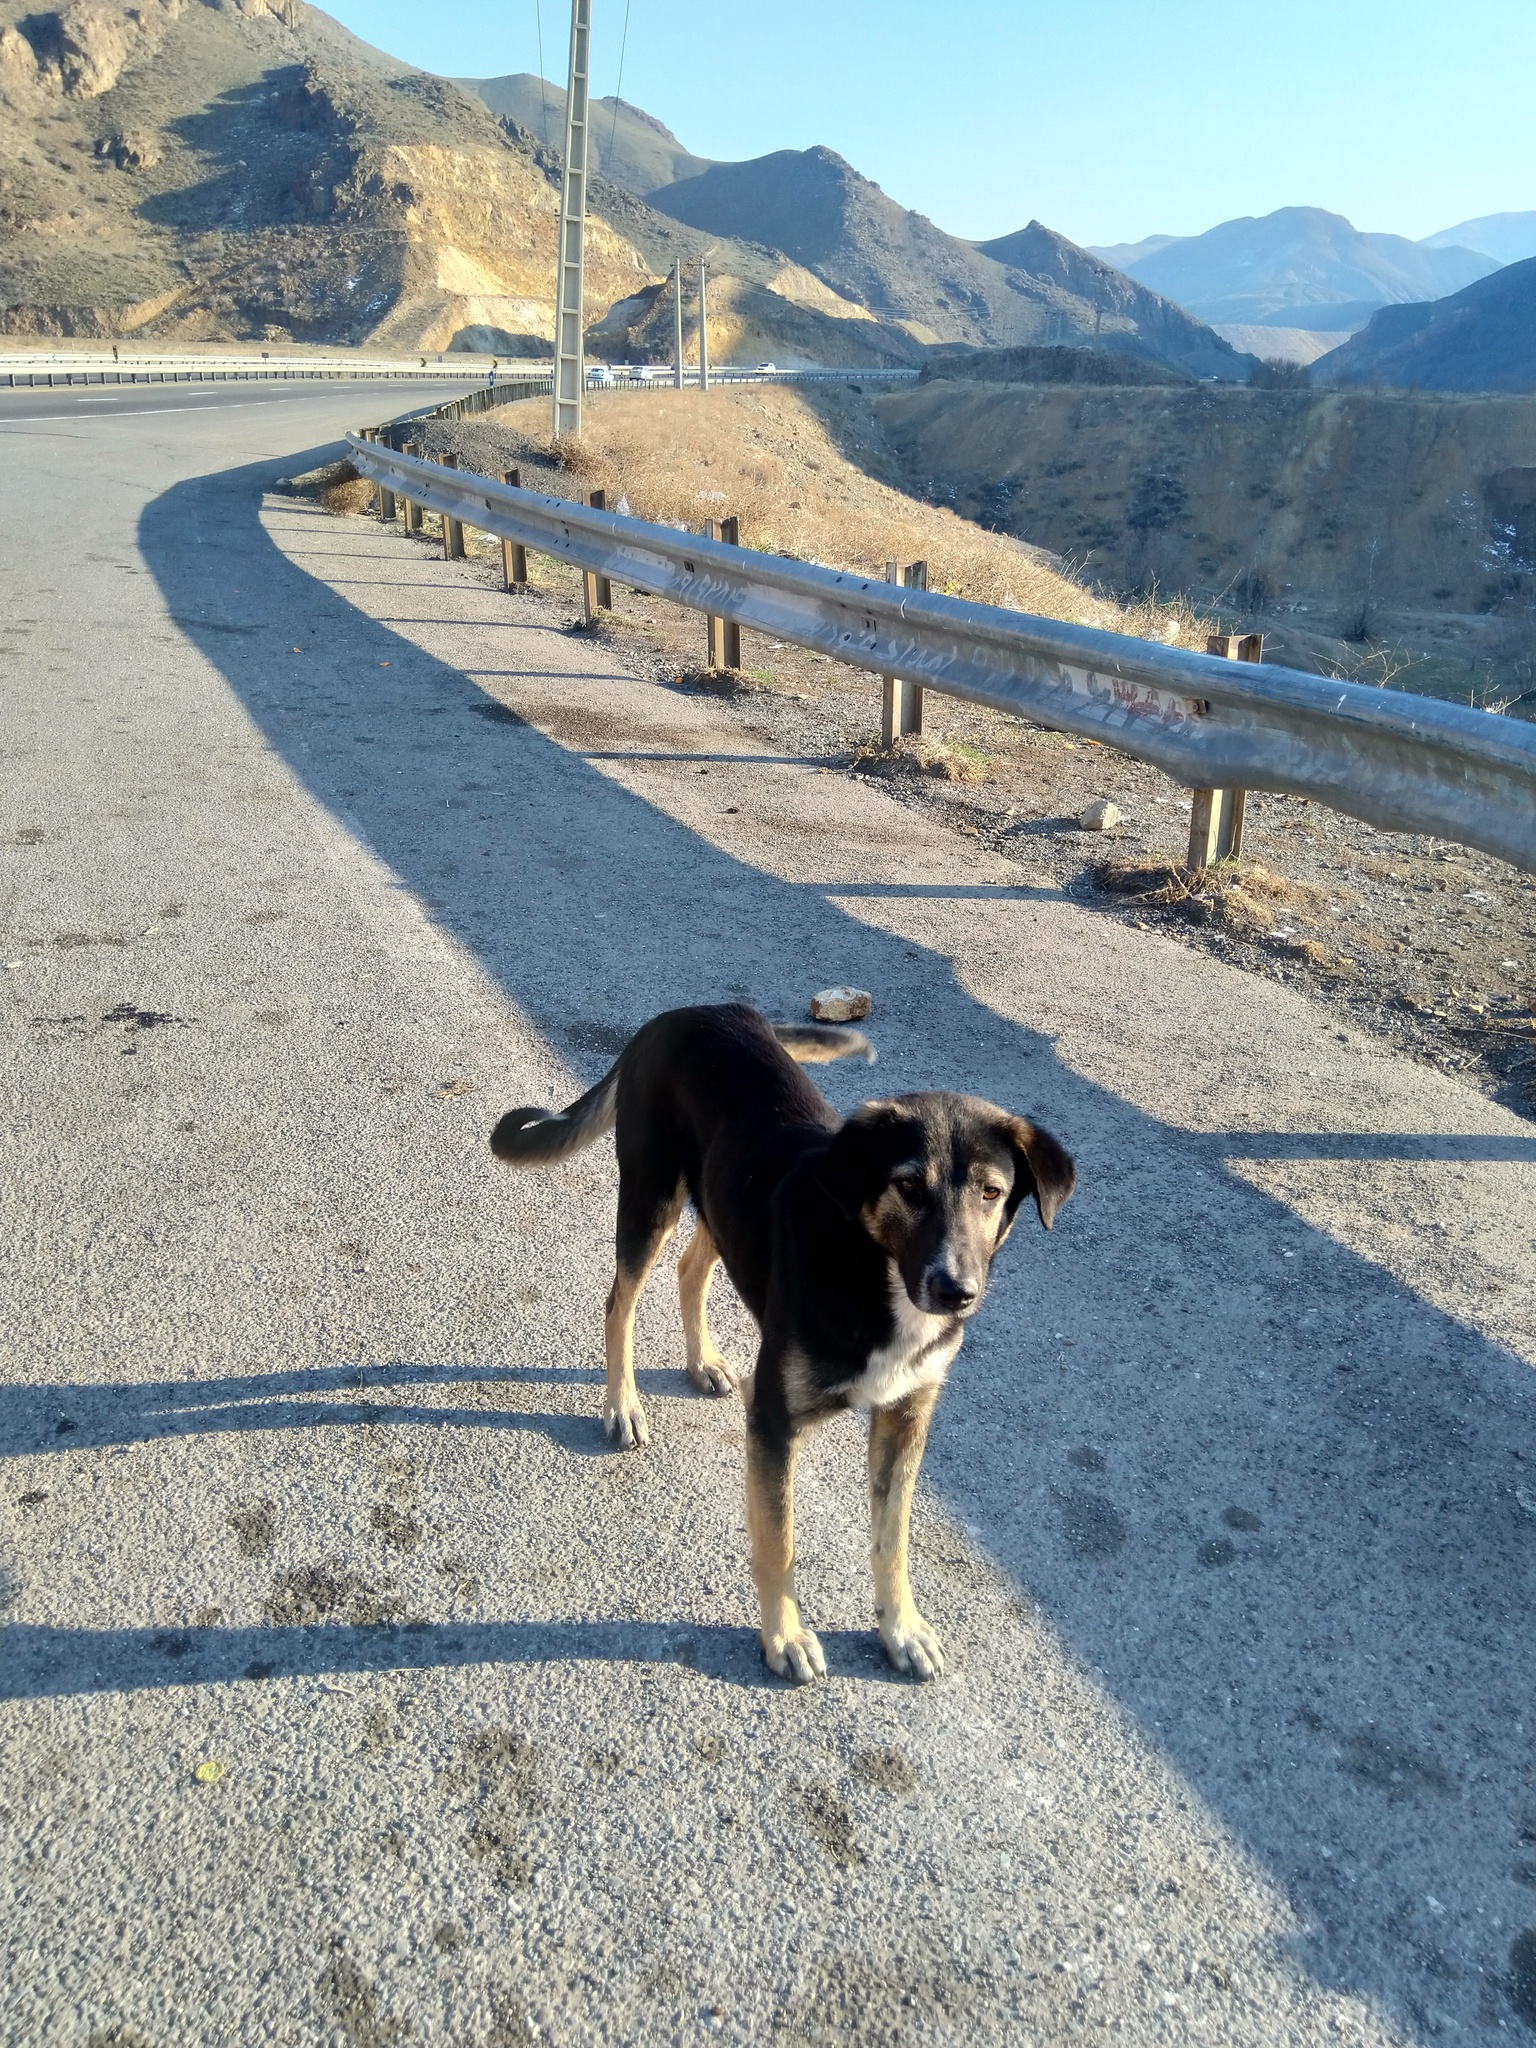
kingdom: Animalia
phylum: Chordata
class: Mammalia
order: Carnivora
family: Canidae
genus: Canis
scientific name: Canis lupus
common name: Gray wolf
